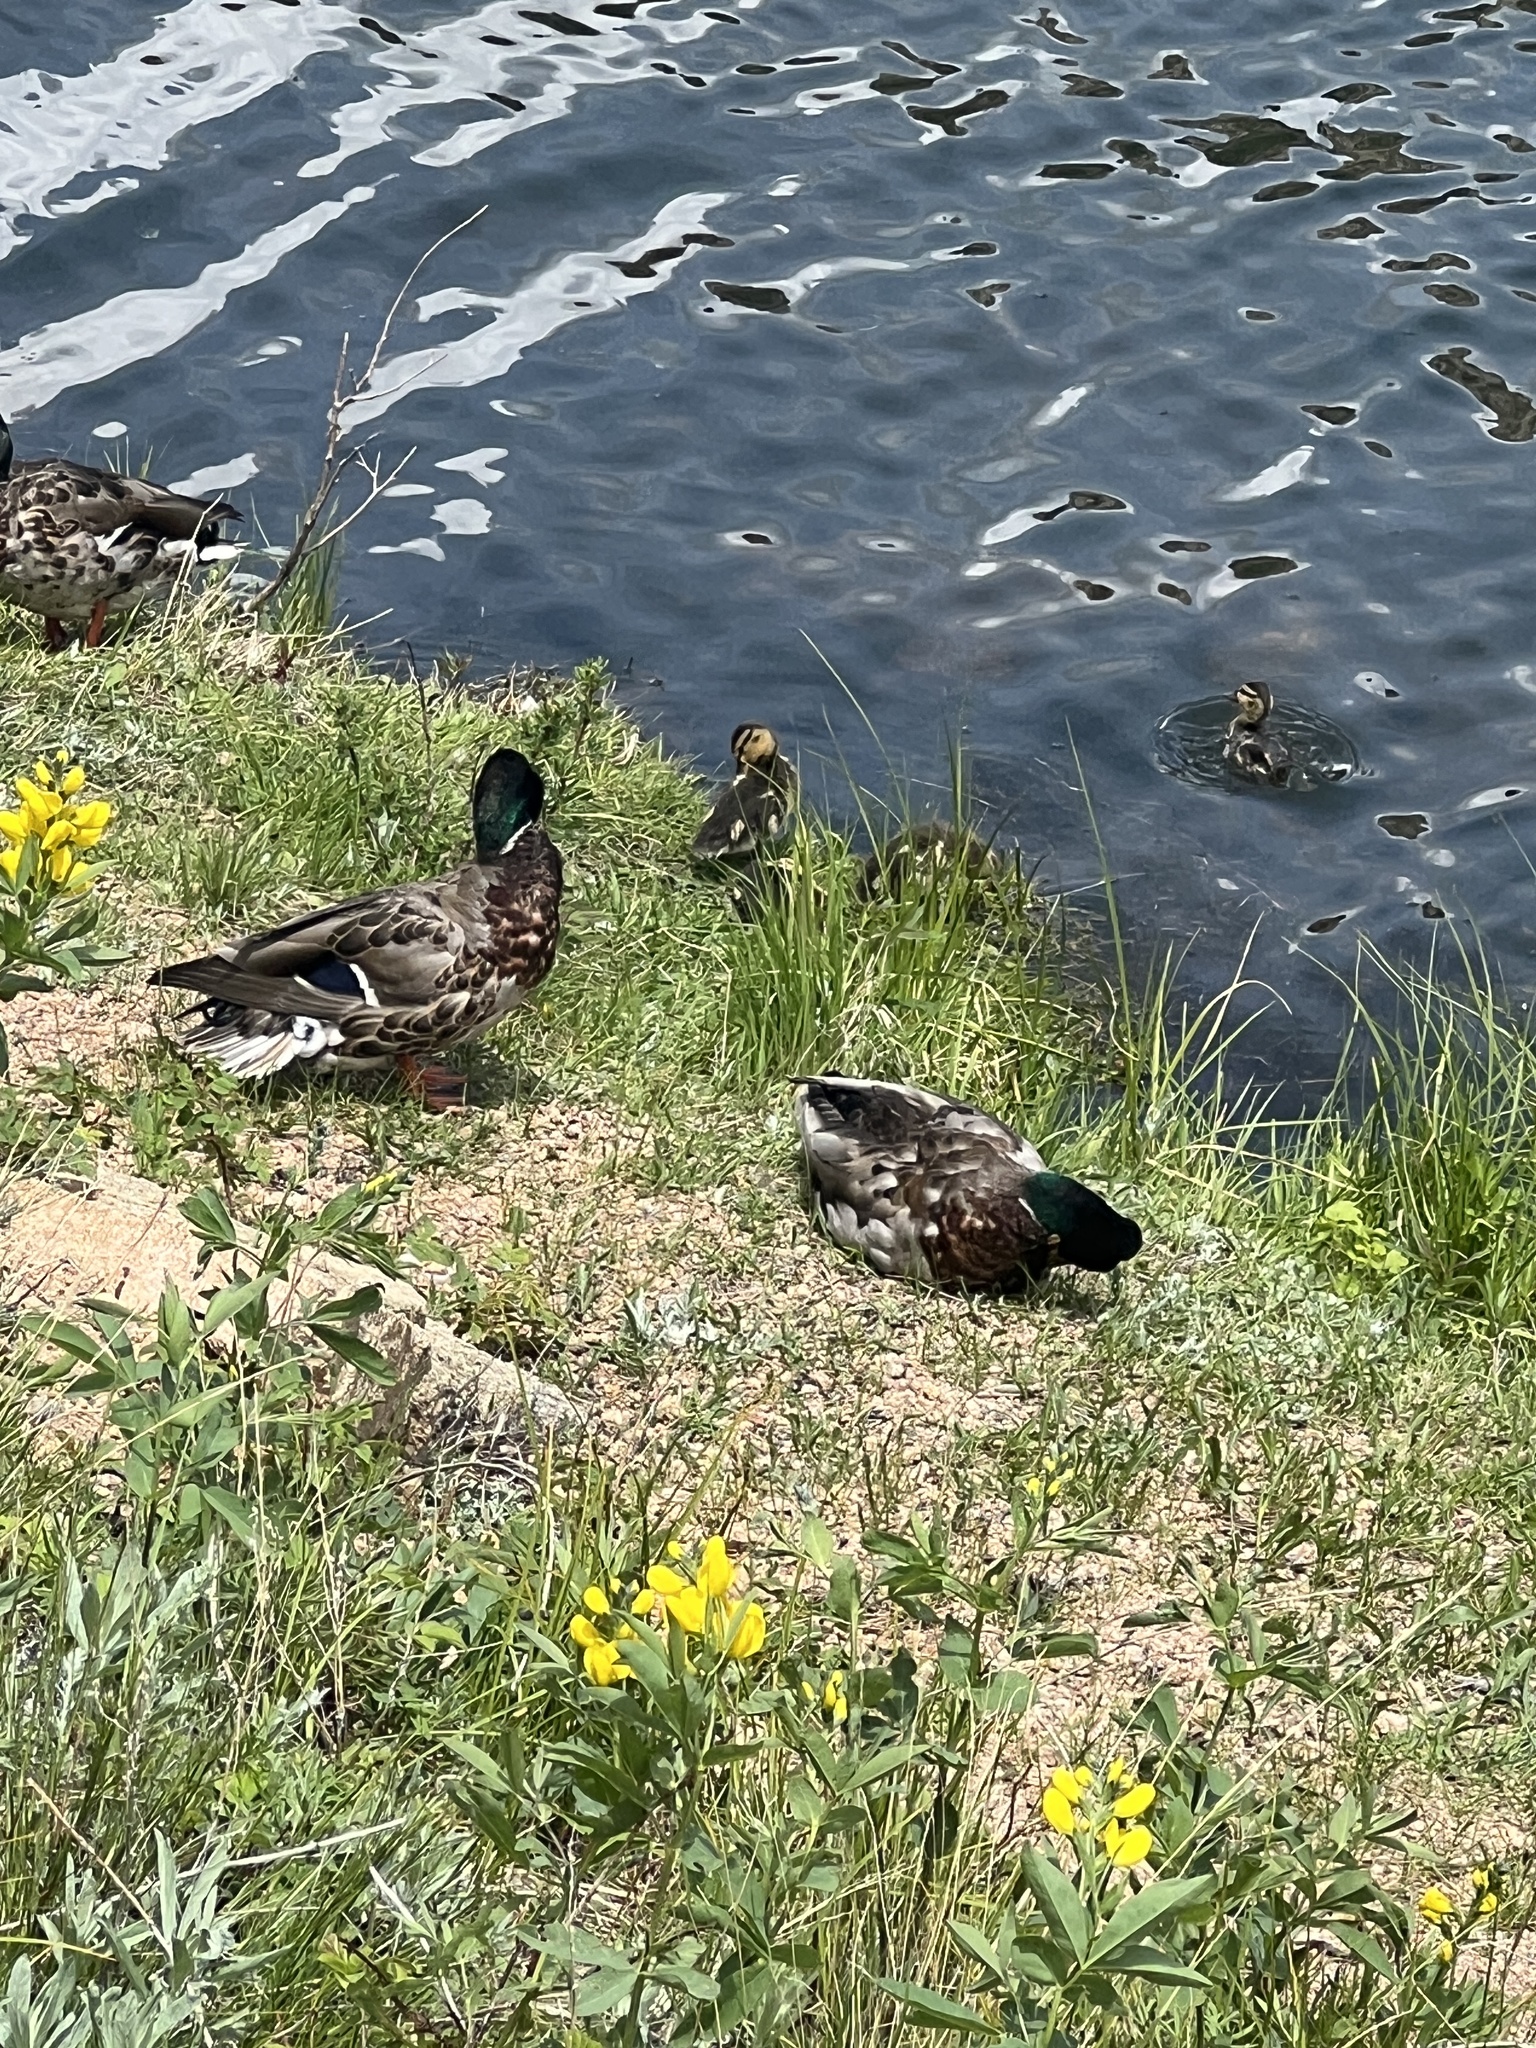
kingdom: Animalia
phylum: Chordata
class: Aves
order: Anseriformes
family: Anatidae
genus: Anas
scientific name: Anas platyrhynchos
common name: Mallard
